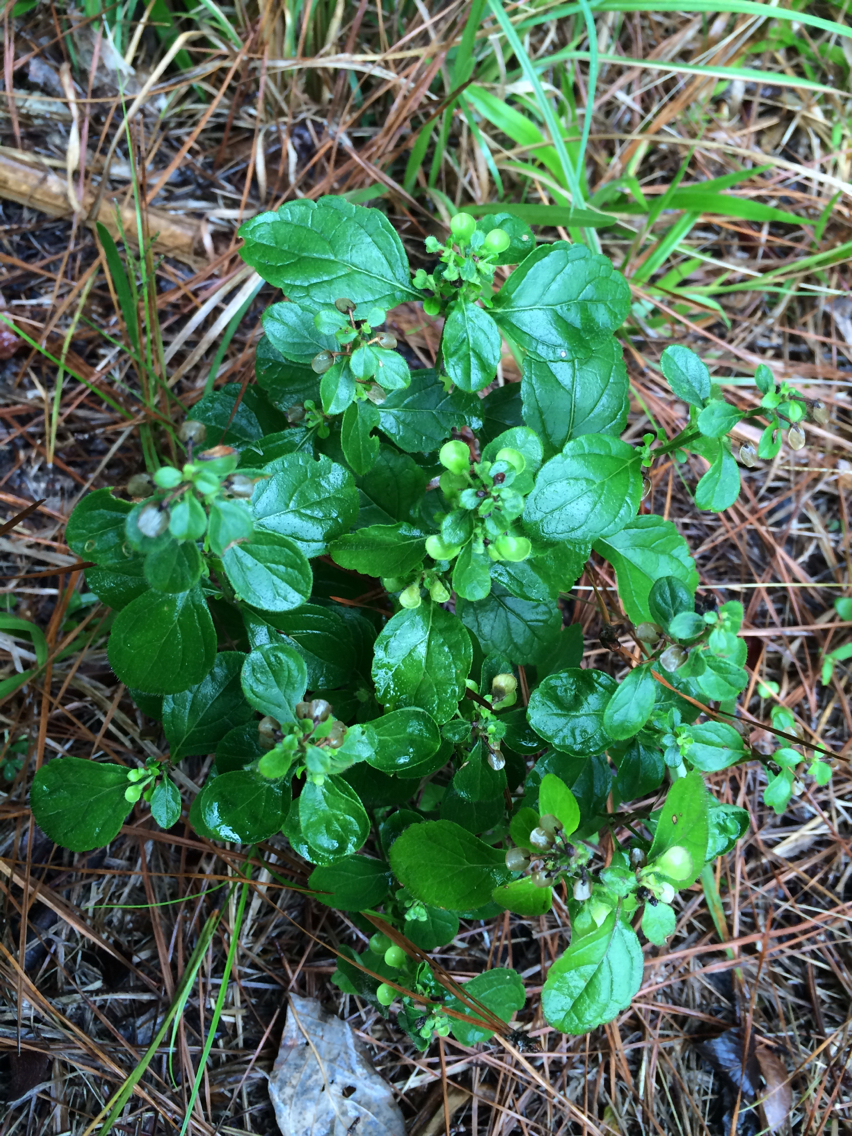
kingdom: Plantae
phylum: Tracheophyta
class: Magnoliopsida
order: Lamiales
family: Lamiaceae
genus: Scutellaria
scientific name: Scutellaria elliptica
